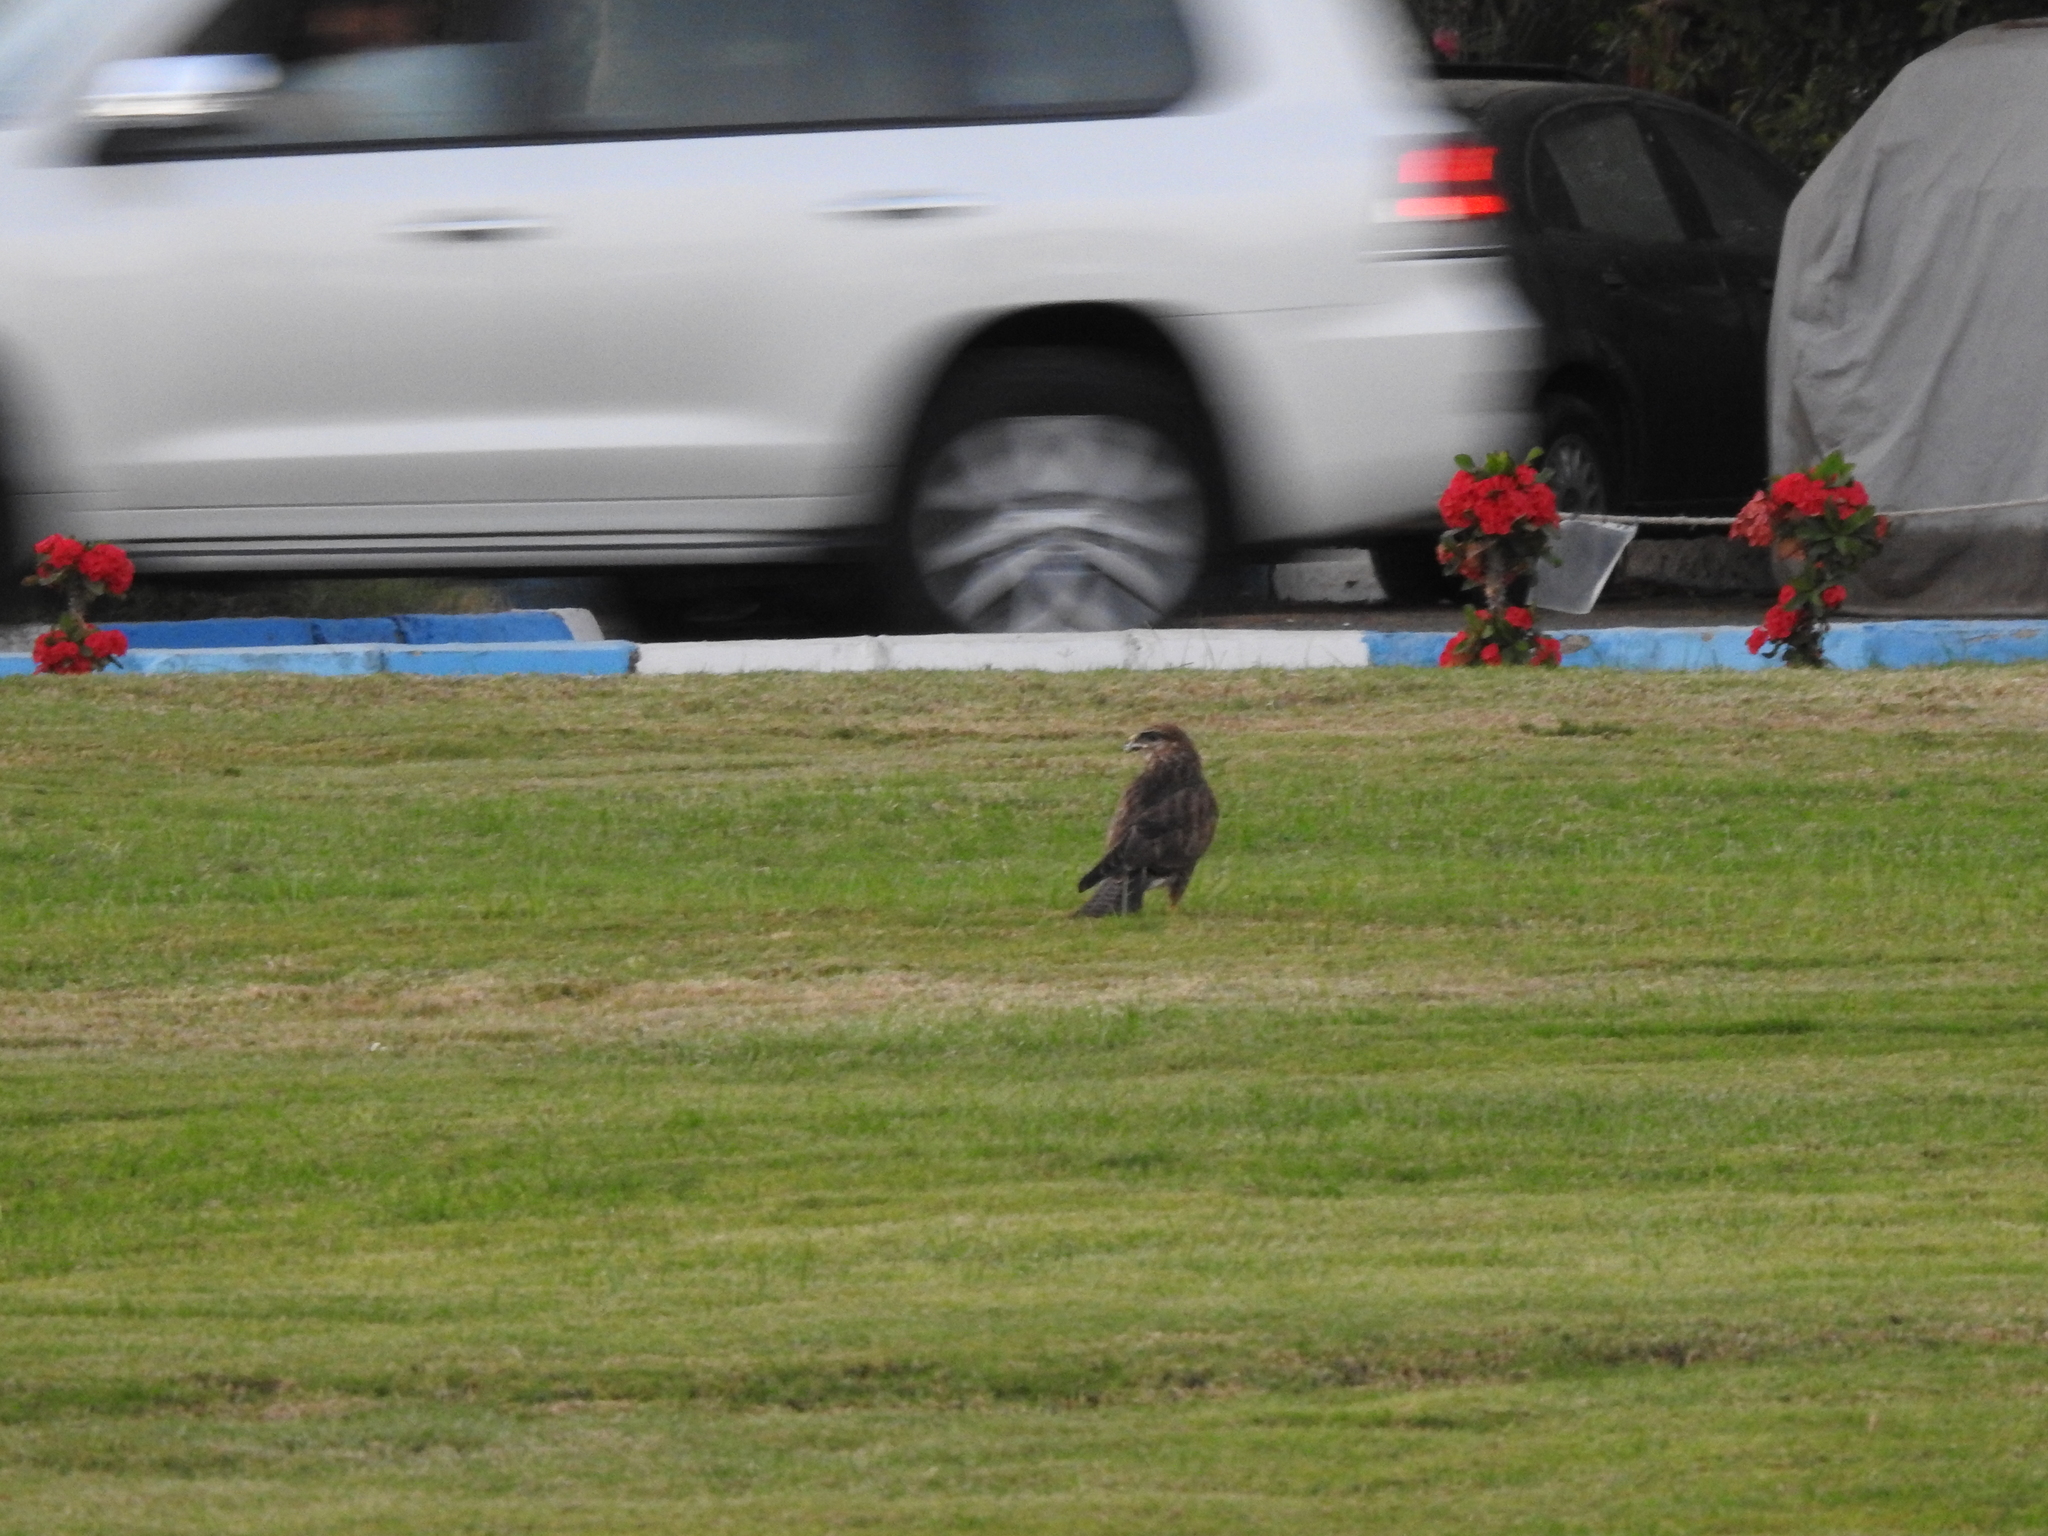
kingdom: Animalia
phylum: Chordata
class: Aves
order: Accipitriformes
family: Accipitridae
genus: Buteo
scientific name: Buteo buteo
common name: Common buzzard
